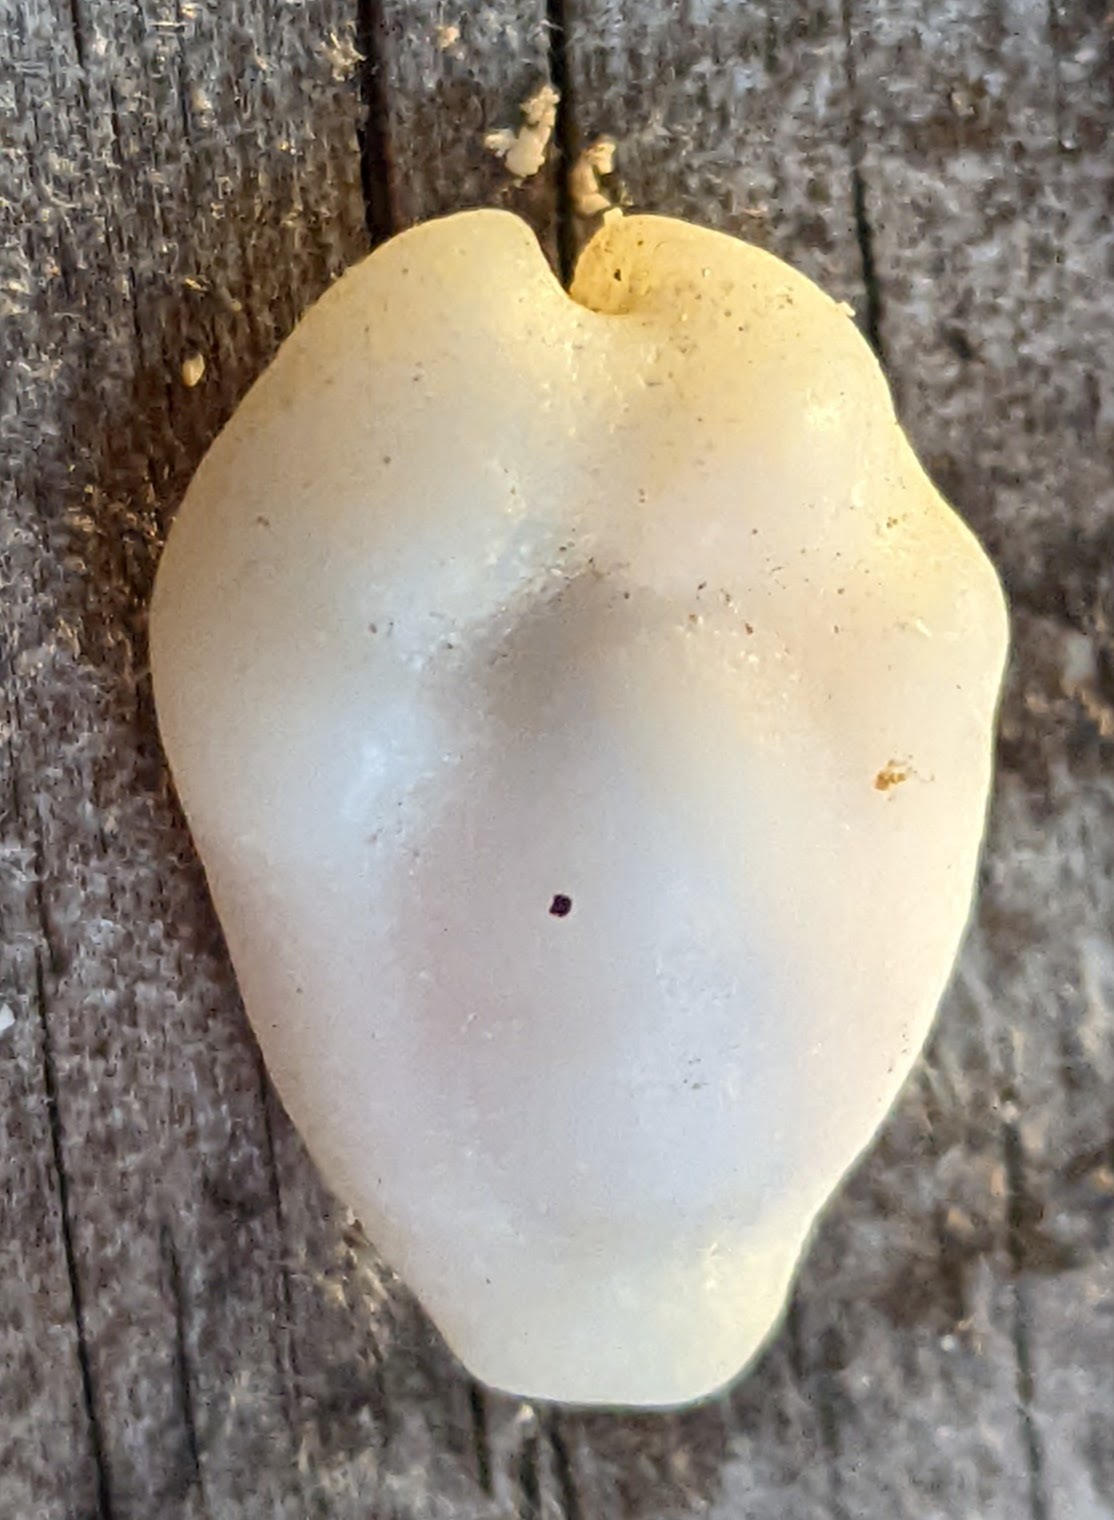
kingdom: Animalia
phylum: Mollusca
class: Gastropoda
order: Littorinimorpha
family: Cypraeidae
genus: Monetaria
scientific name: Monetaria moneta
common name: Money cowrie
